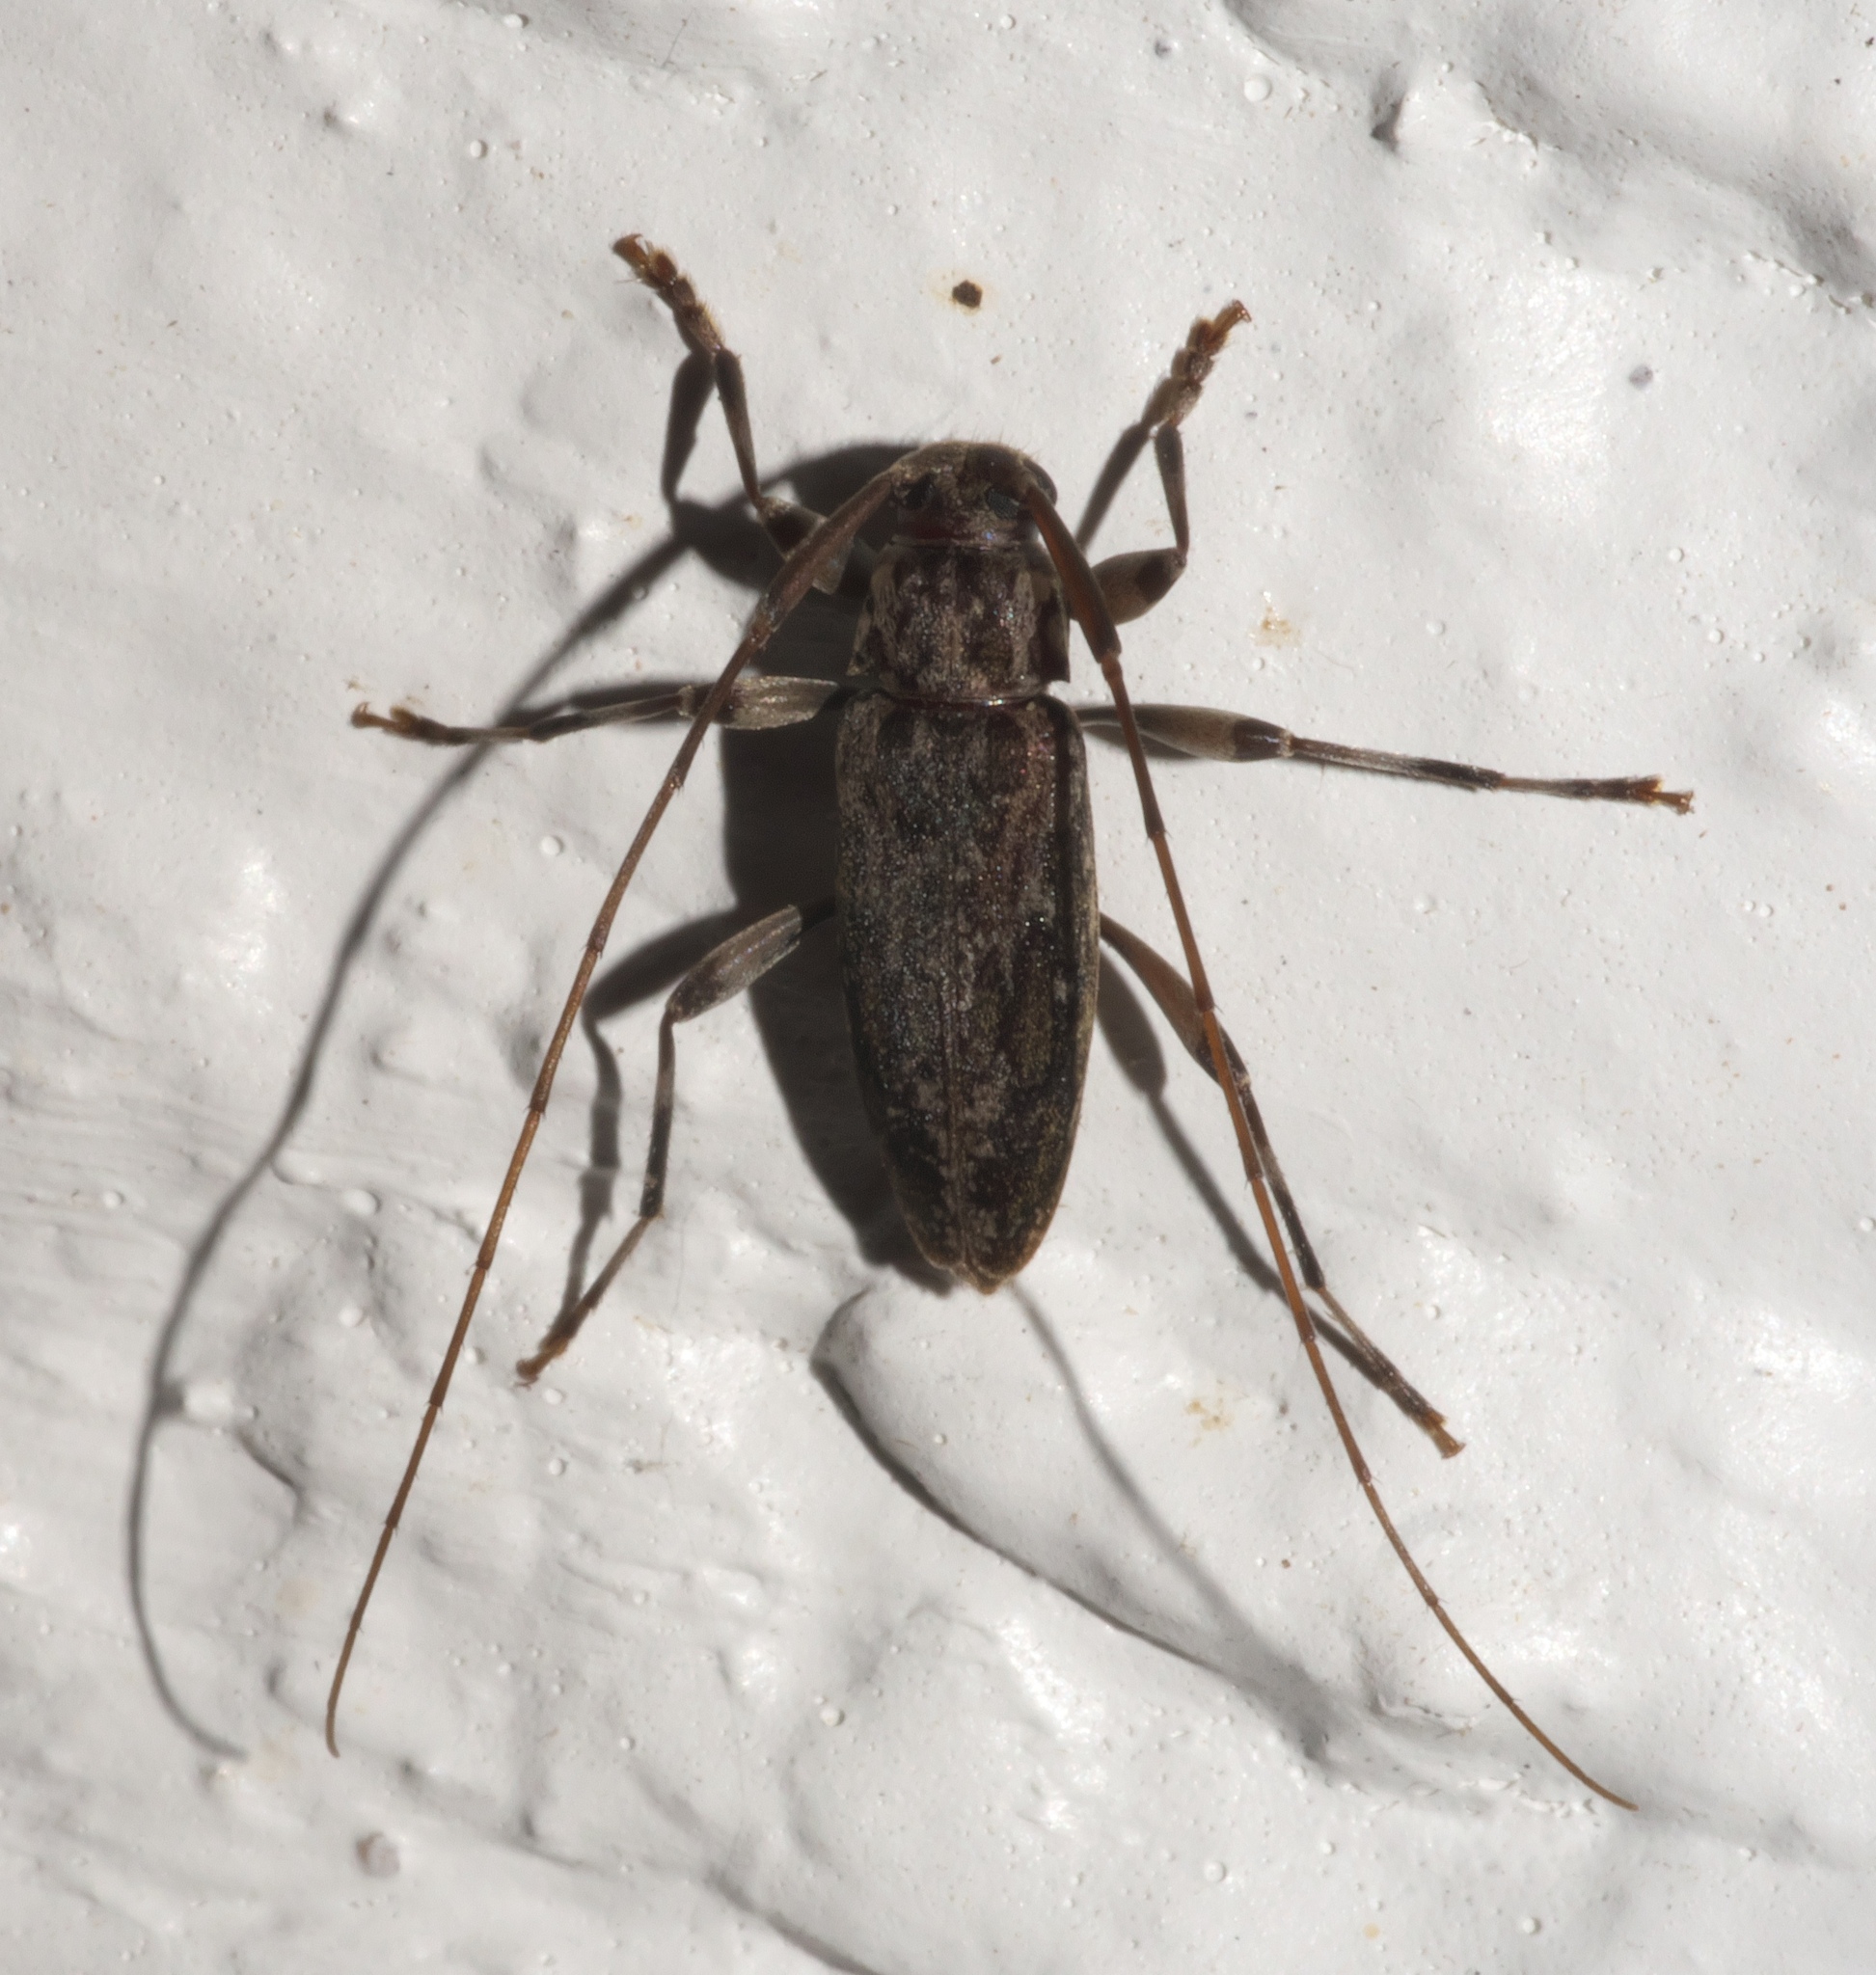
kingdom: Animalia
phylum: Arthropoda
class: Insecta
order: Coleoptera
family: Cerambycidae
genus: Lepturges
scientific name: Lepturges confluens
